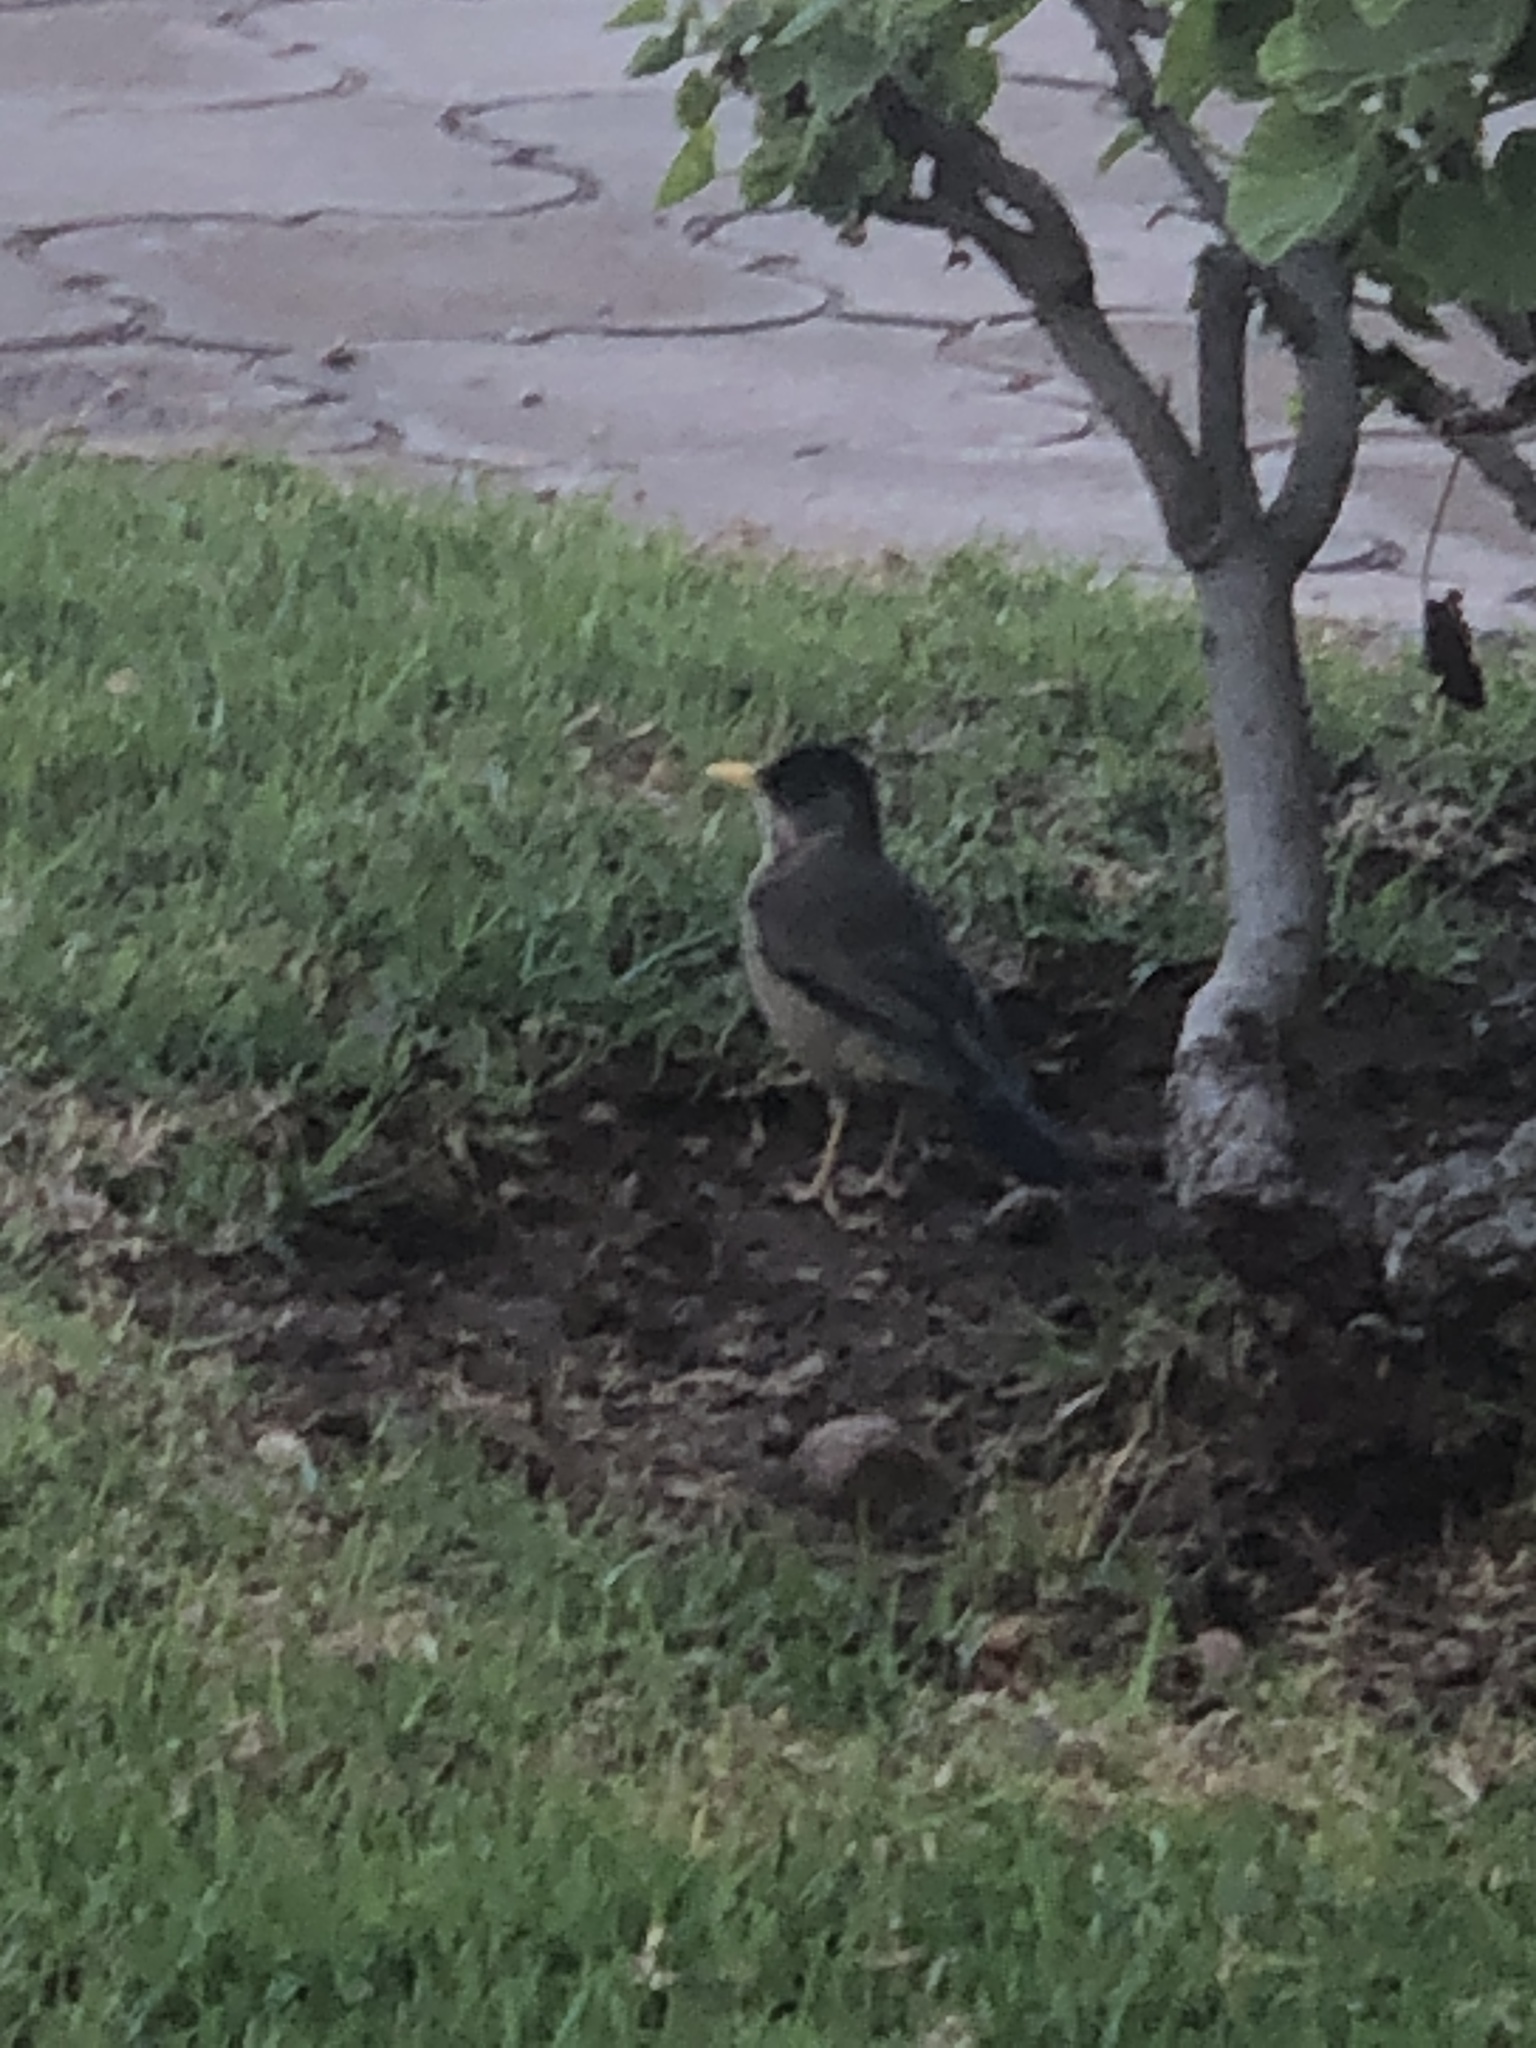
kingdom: Animalia
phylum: Chordata
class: Aves
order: Passeriformes
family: Turdidae
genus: Turdus
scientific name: Turdus falcklandii
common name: Austral thrush
